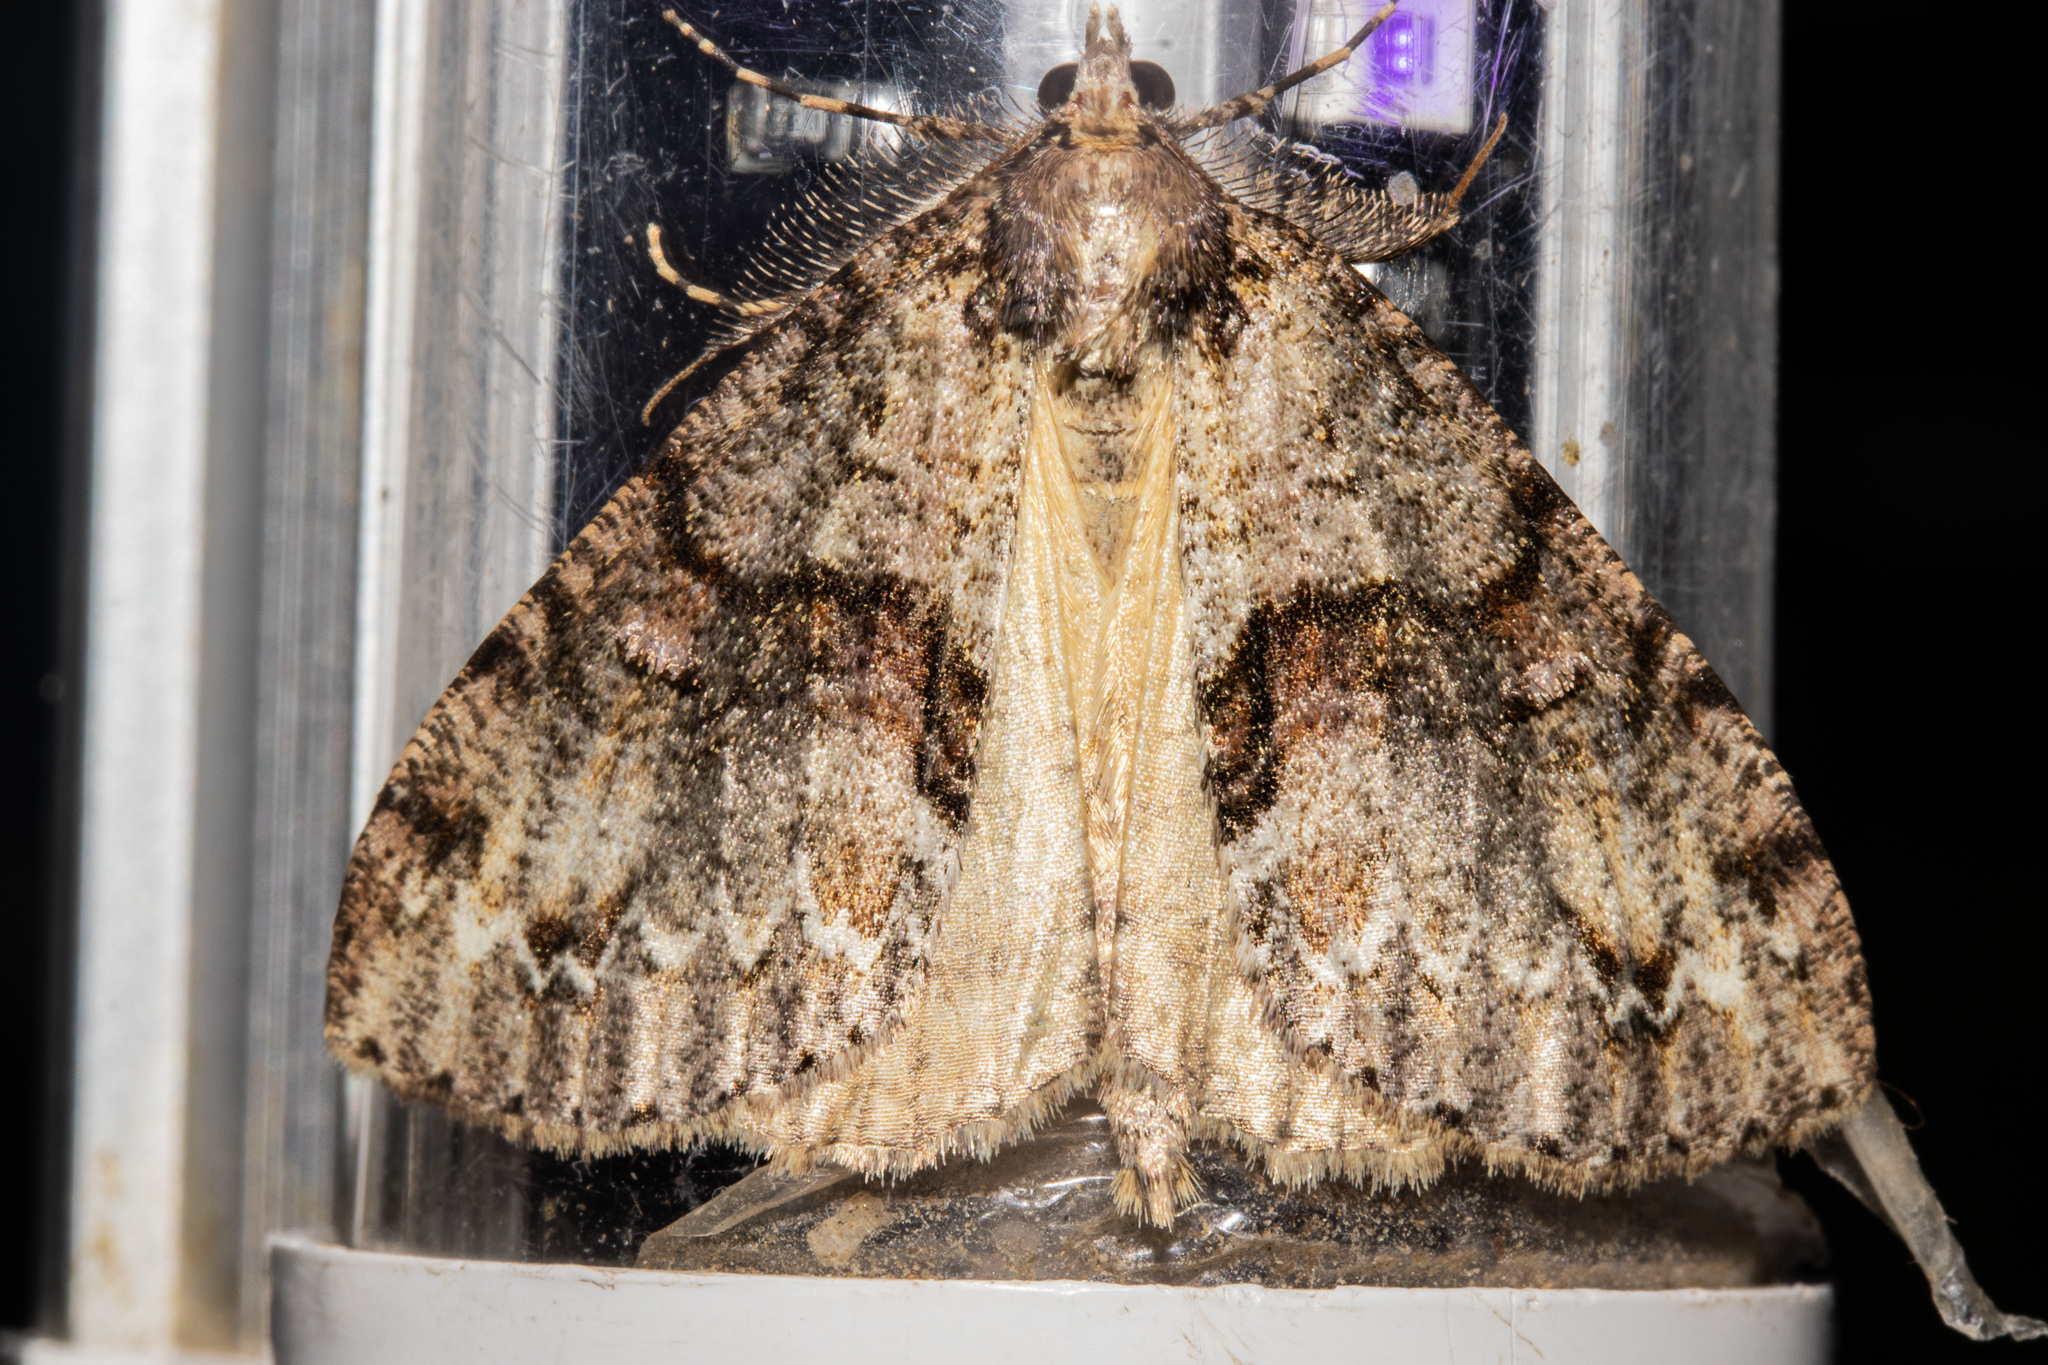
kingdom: Animalia
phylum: Arthropoda
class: Insecta
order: Lepidoptera
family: Geometridae
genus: Pseudocoremia
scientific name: Pseudocoremia suavis
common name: Common forest looper
